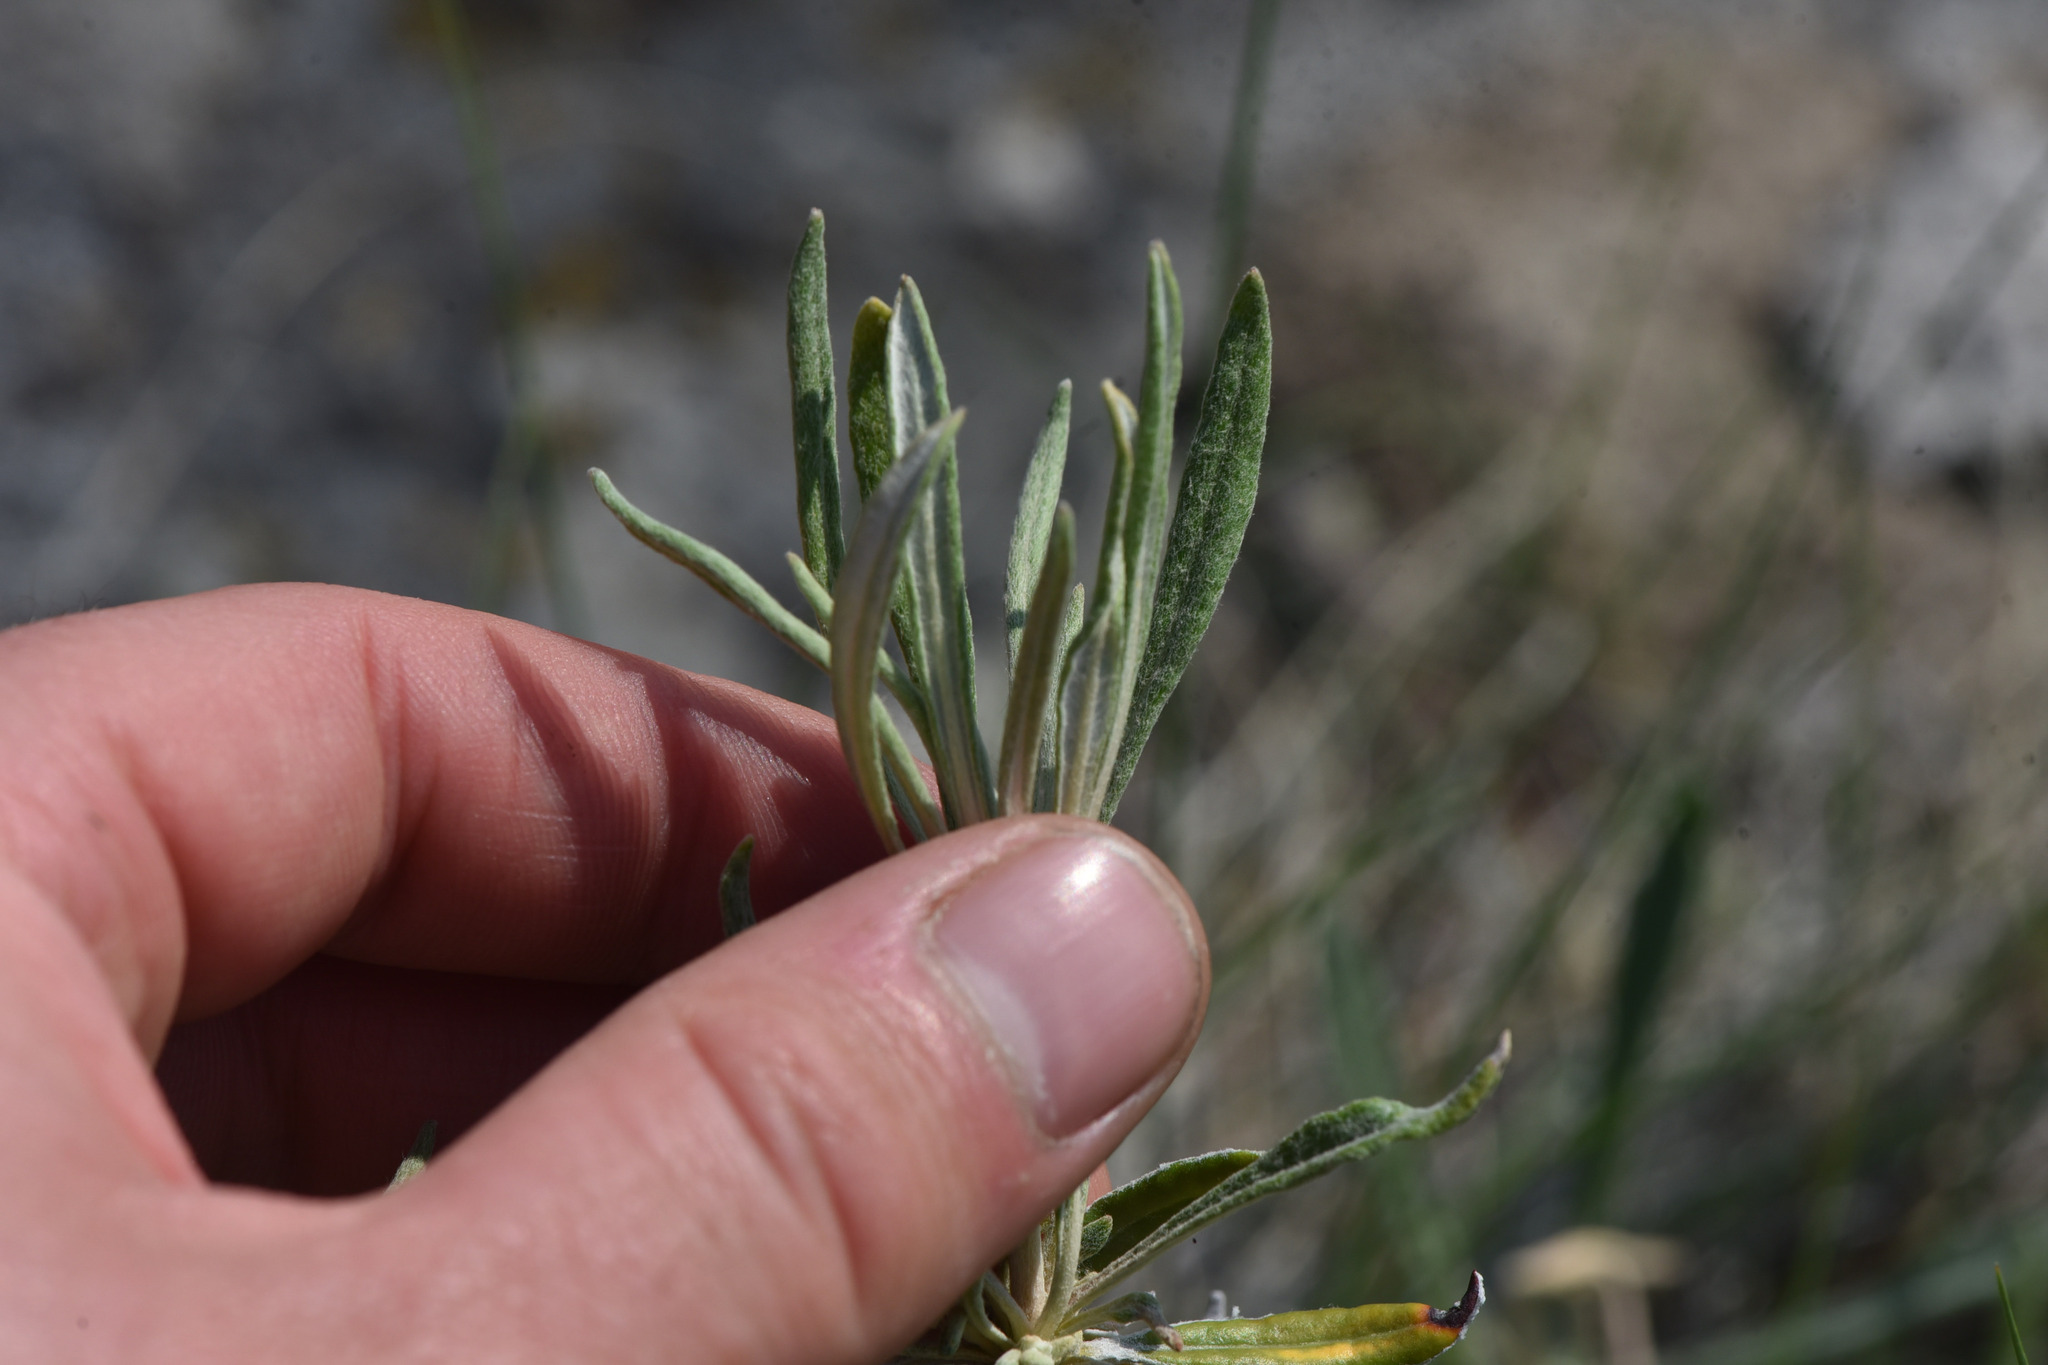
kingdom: Plantae
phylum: Tracheophyta
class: Magnoliopsida
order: Caryophyllales
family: Polygonaceae
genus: Eriogonum
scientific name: Eriogonum heracleoides
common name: Wyeth's buckwheat
